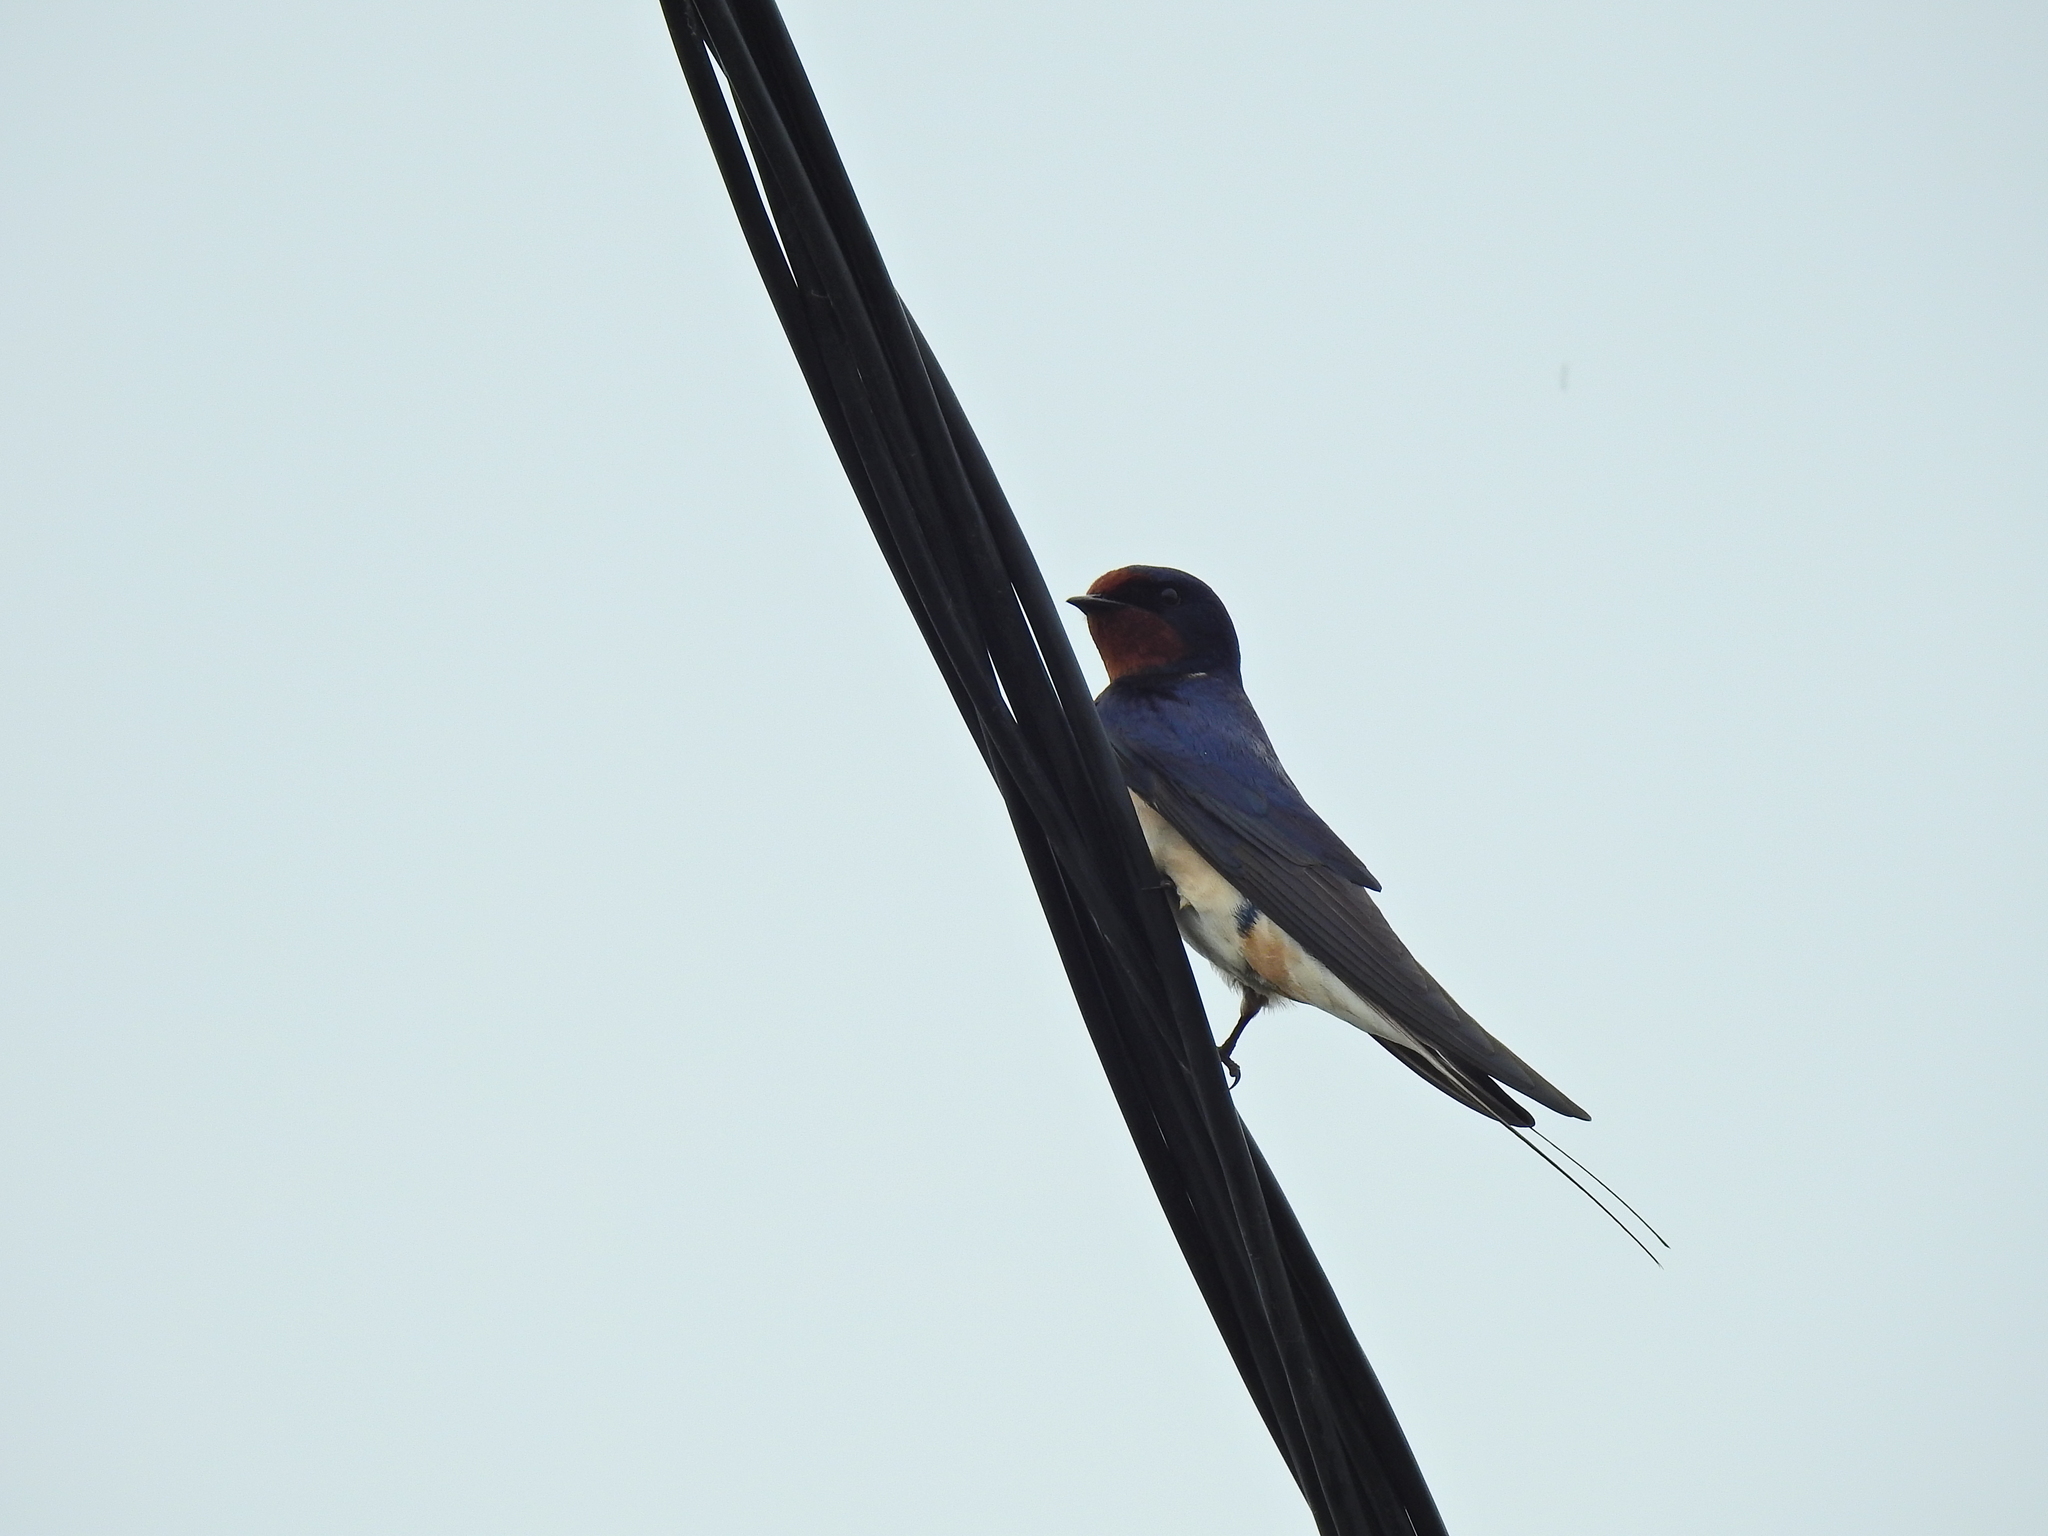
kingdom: Animalia
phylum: Chordata
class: Aves
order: Passeriformes
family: Hirundinidae
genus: Hirundo
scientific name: Hirundo rustica
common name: Barn swallow
